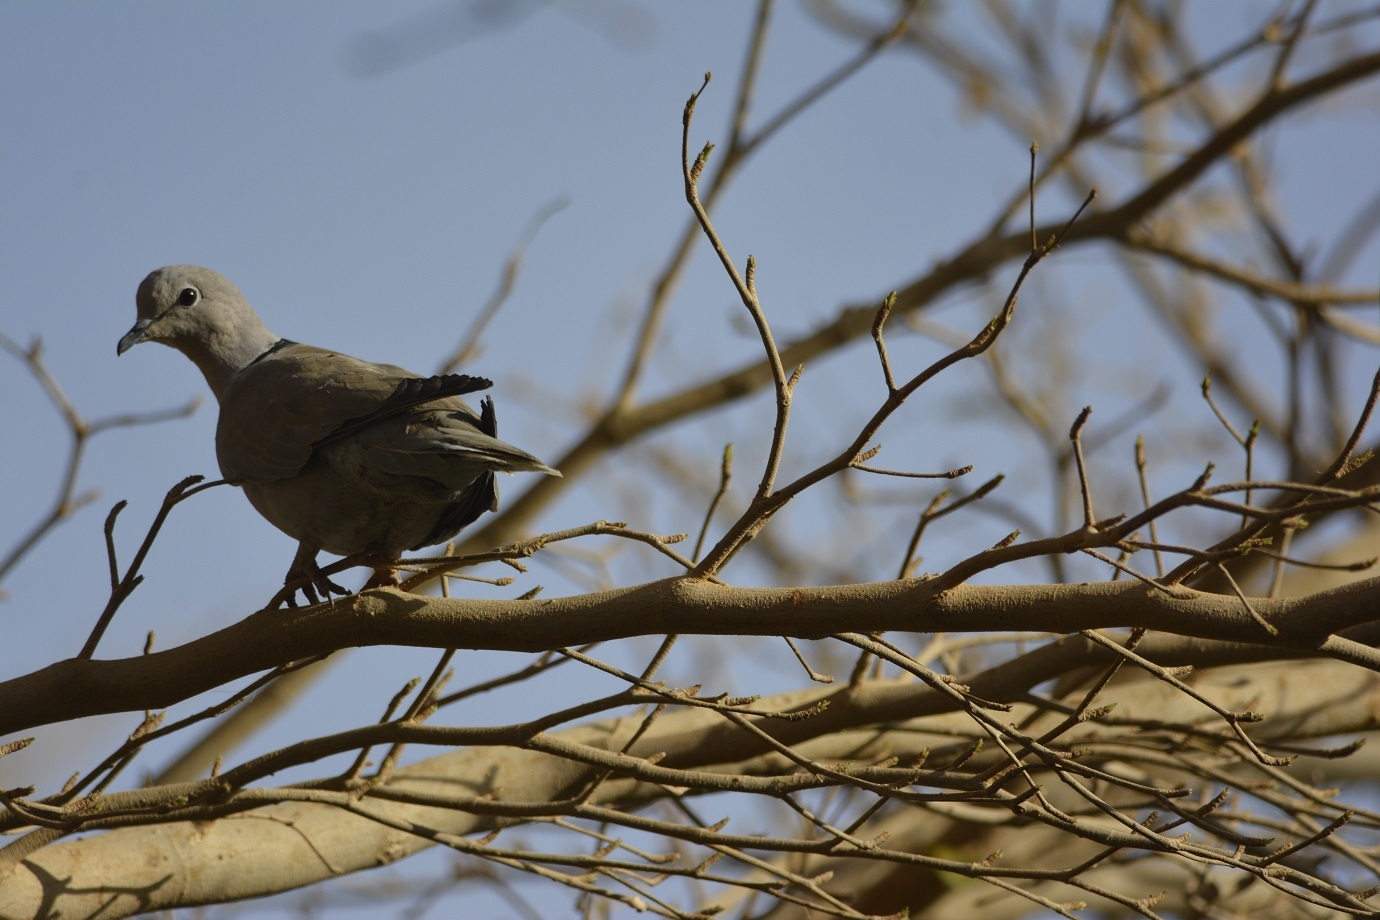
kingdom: Animalia
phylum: Chordata
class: Aves
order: Columbiformes
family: Columbidae
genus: Streptopelia
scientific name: Streptopelia decaocto
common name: Eurasian collared dove
